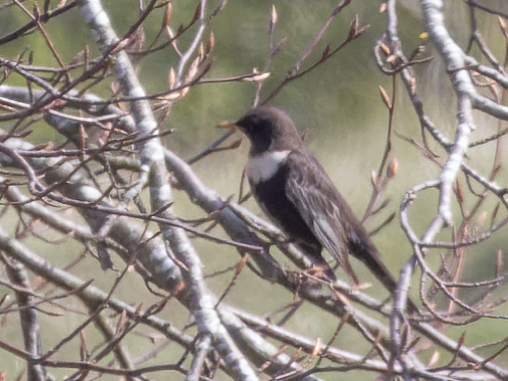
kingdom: Animalia
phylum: Chordata
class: Aves
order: Passeriformes
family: Turdidae
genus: Turdus
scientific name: Turdus torquatus
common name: Ring ouzel
